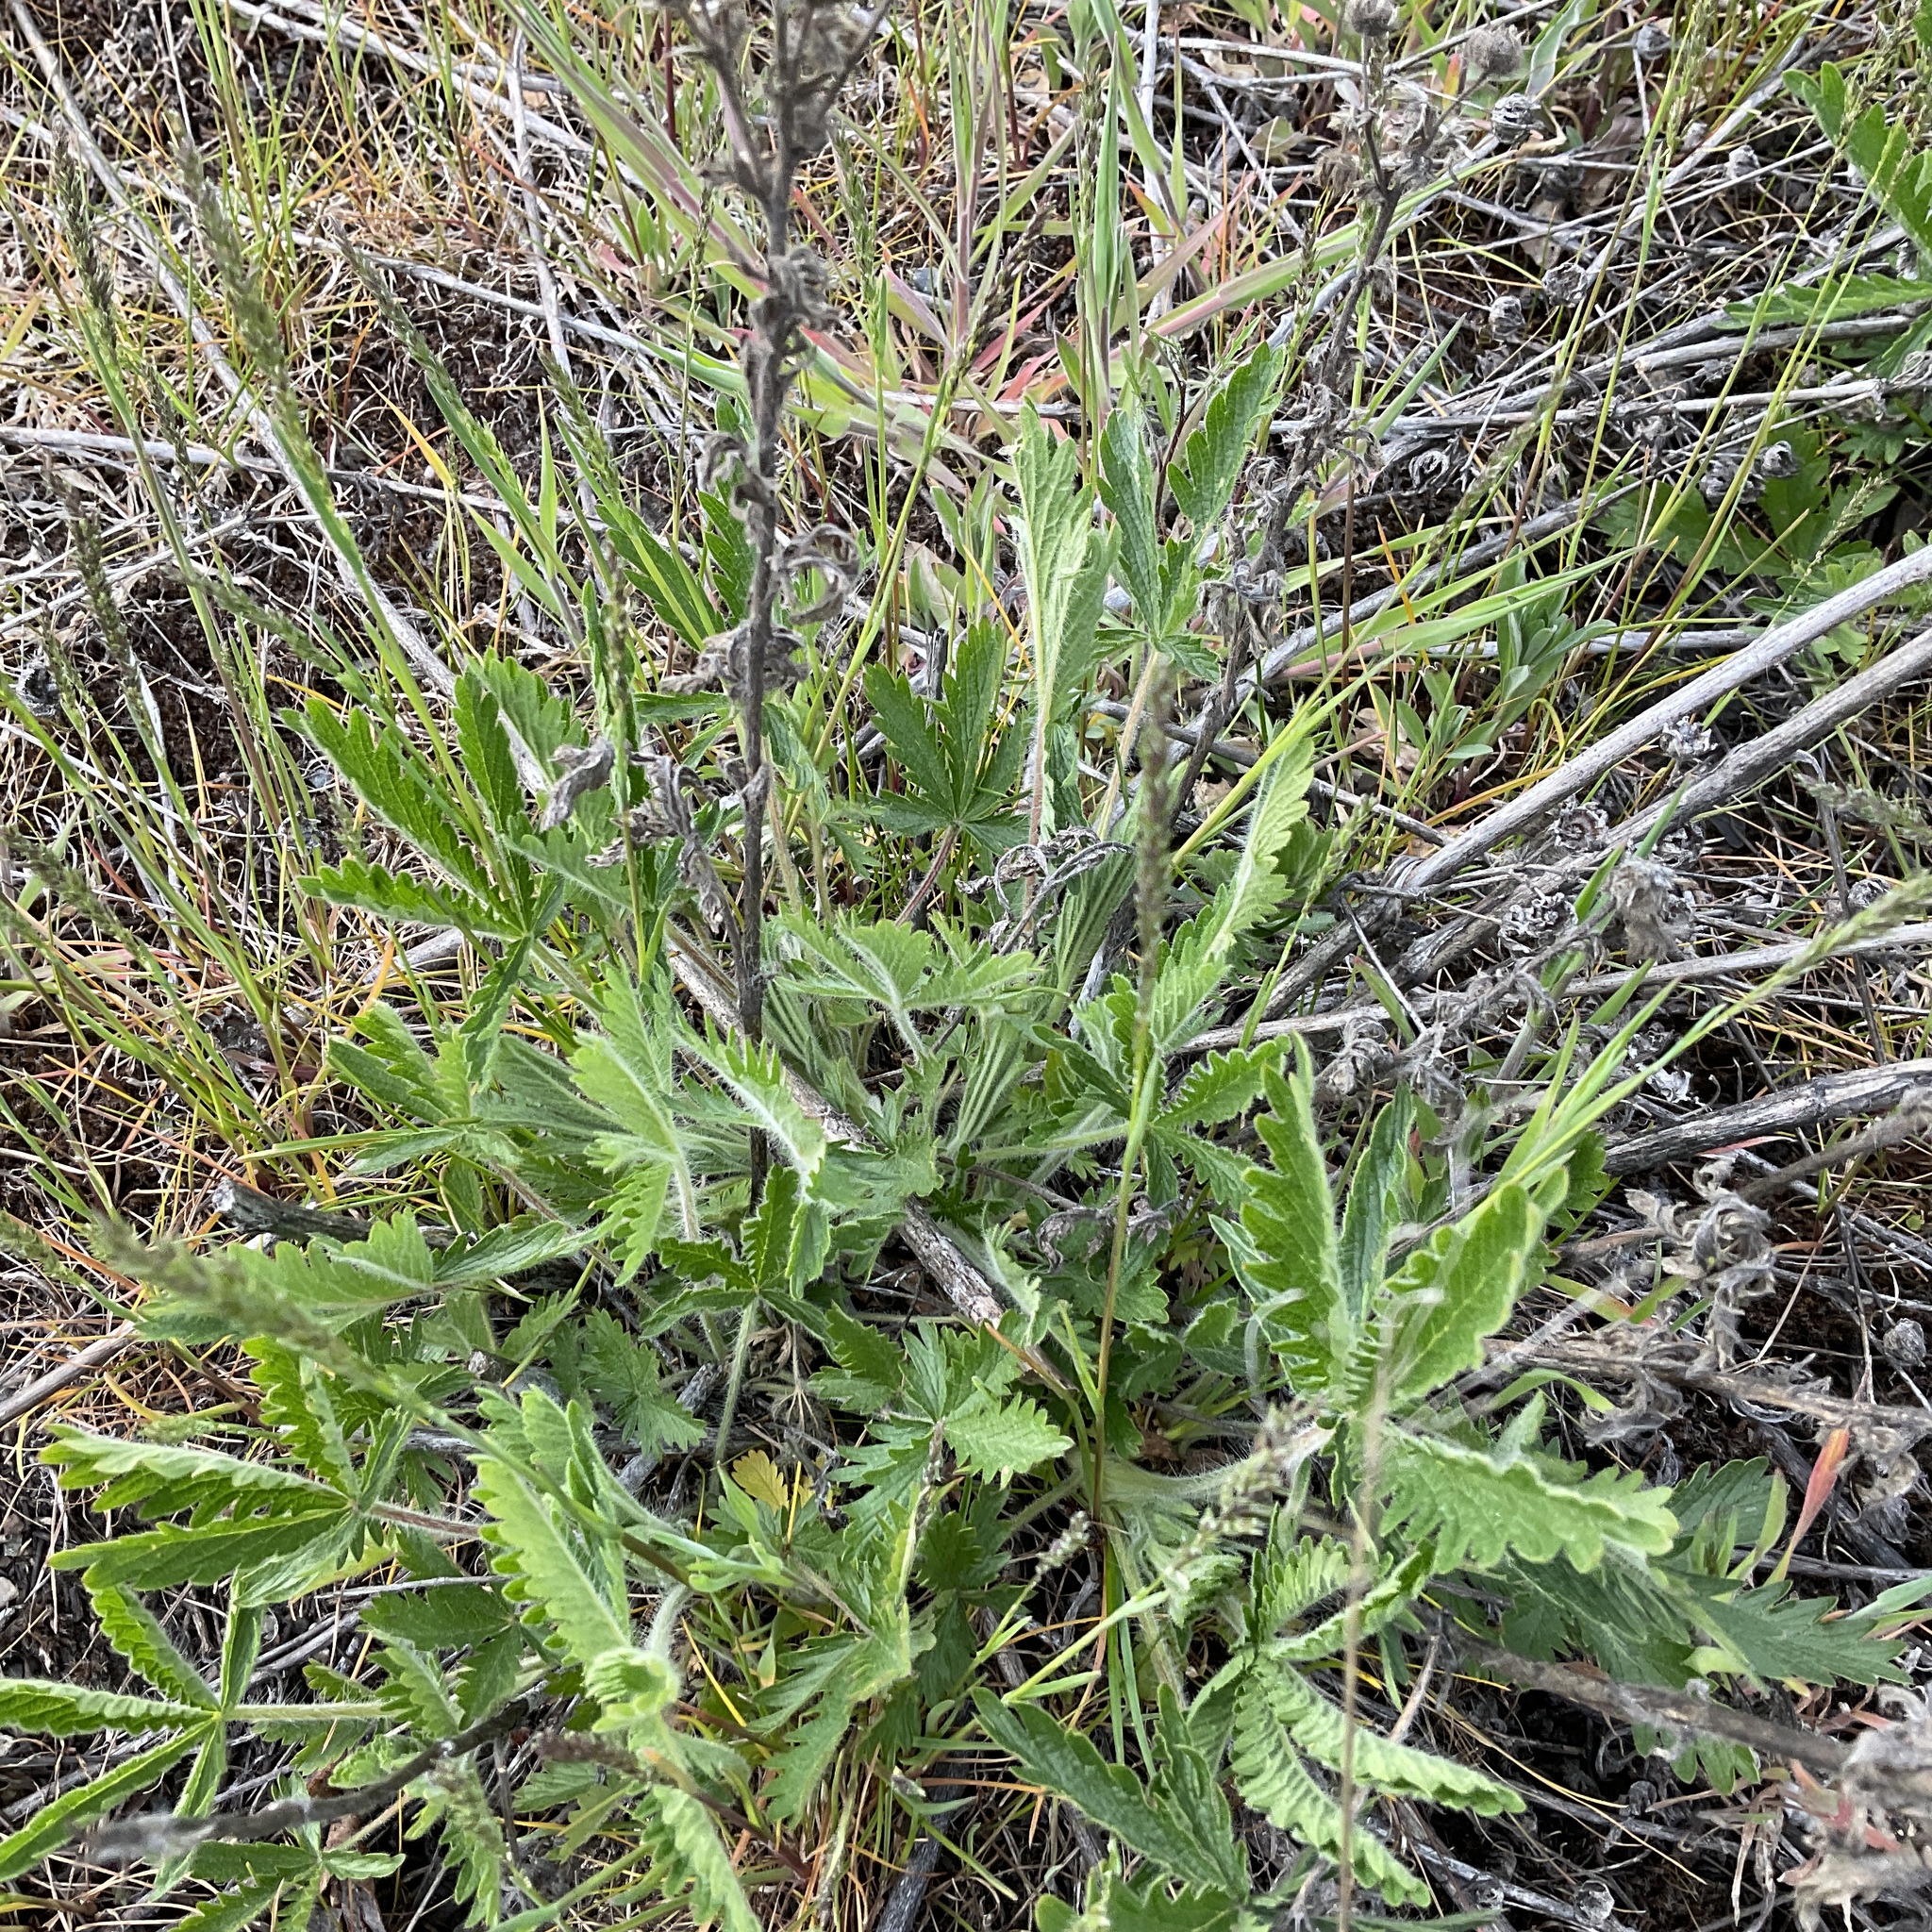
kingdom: Plantae
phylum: Tracheophyta
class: Magnoliopsida
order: Rosales
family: Rosaceae
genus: Potentilla
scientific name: Potentilla recta
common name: Sulphur cinquefoil
